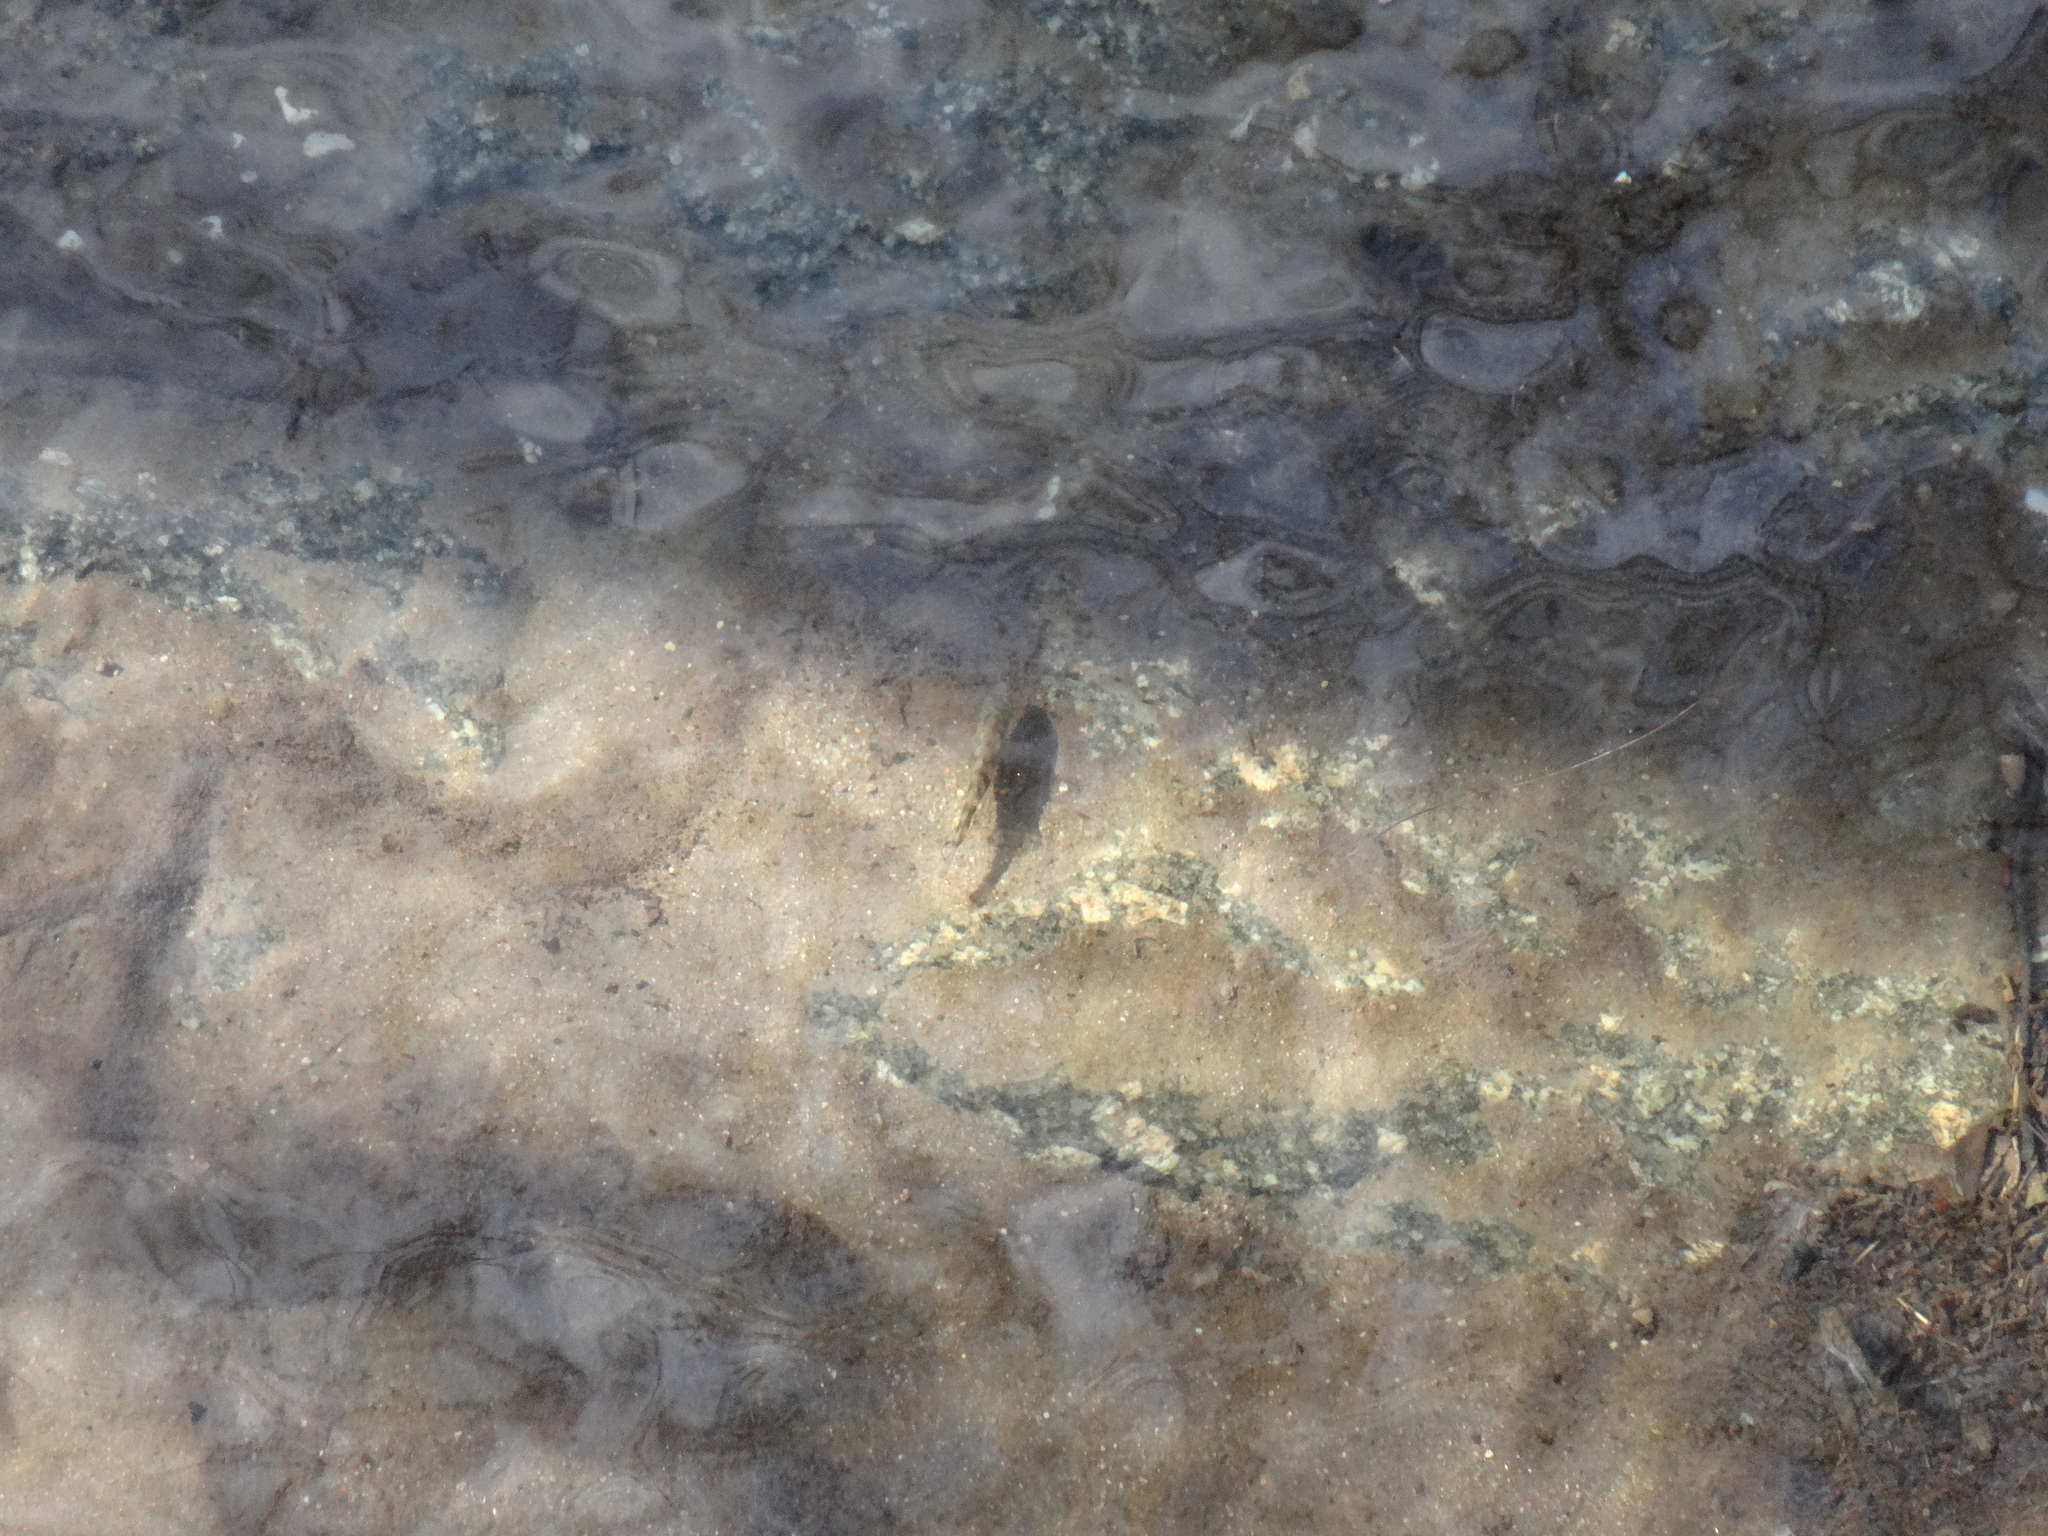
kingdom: Animalia
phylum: Chordata
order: Gasterosteiformes
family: Gasterosteidae
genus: Gasterosteus
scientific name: Gasterosteus aculeatus
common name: Three-spined stickleback
